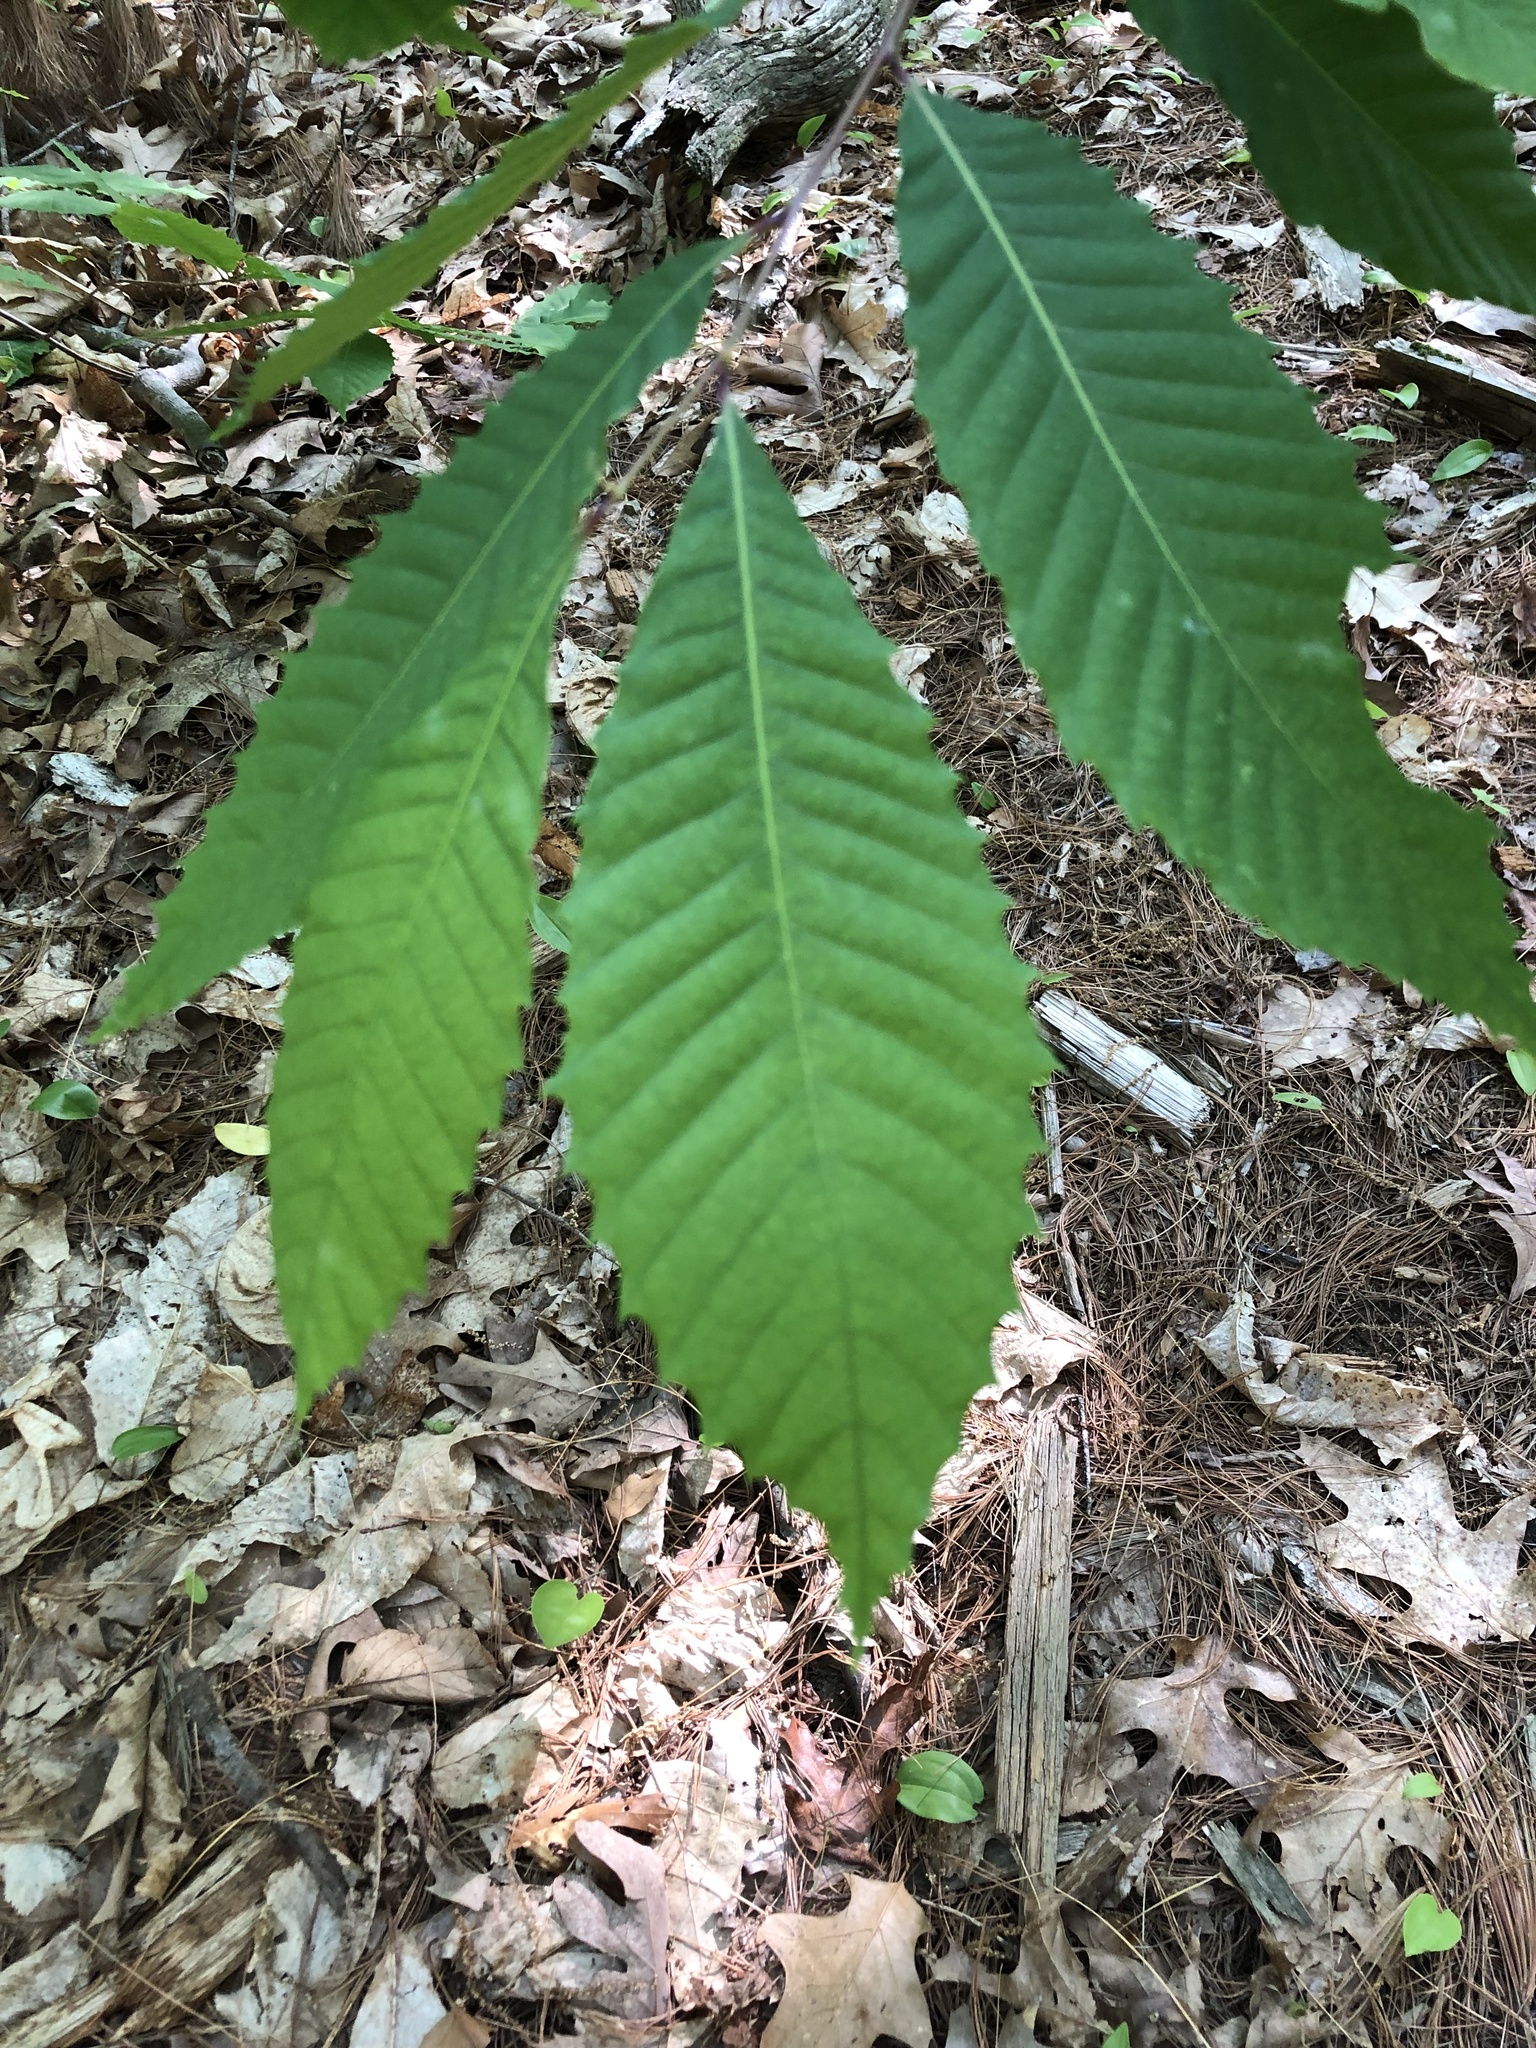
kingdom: Plantae
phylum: Tracheophyta
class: Magnoliopsida
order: Fagales
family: Fagaceae
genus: Castanea
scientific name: Castanea dentata
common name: American chestnut
